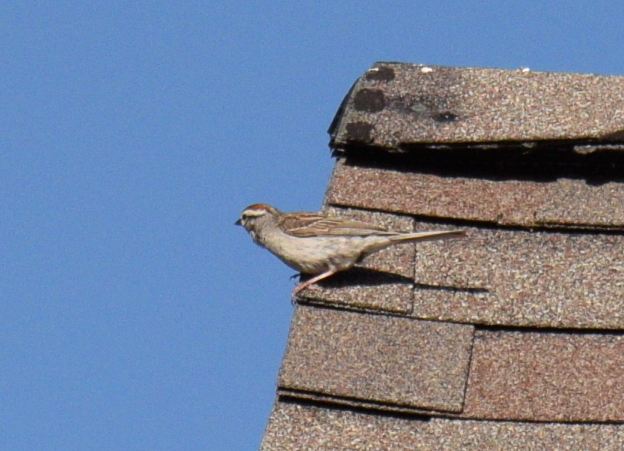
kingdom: Animalia
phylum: Chordata
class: Aves
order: Passeriformes
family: Passerellidae
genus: Spizella
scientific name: Spizella passerina
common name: Chipping sparrow
